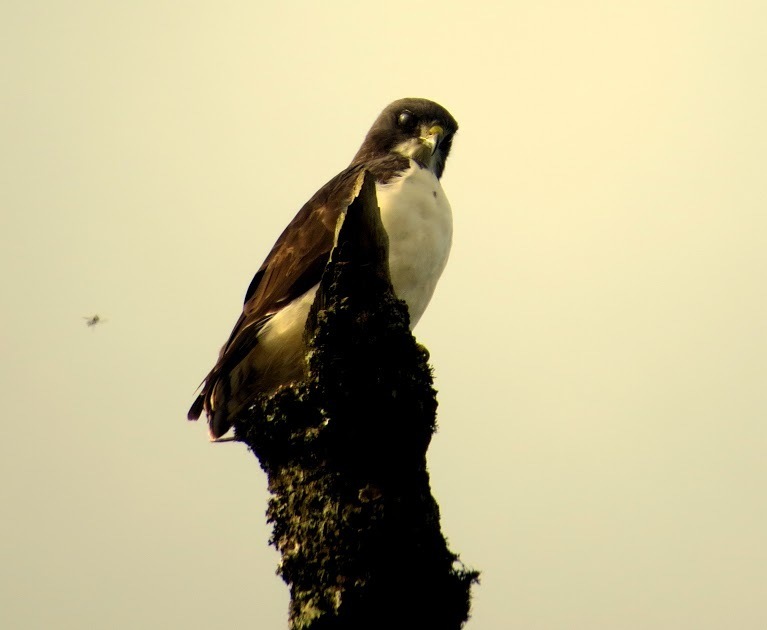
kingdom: Animalia
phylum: Chordata
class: Aves
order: Accipitriformes
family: Accipitridae
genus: Buteo
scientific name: Buteo brachyurus
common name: Short-tailed hawk
